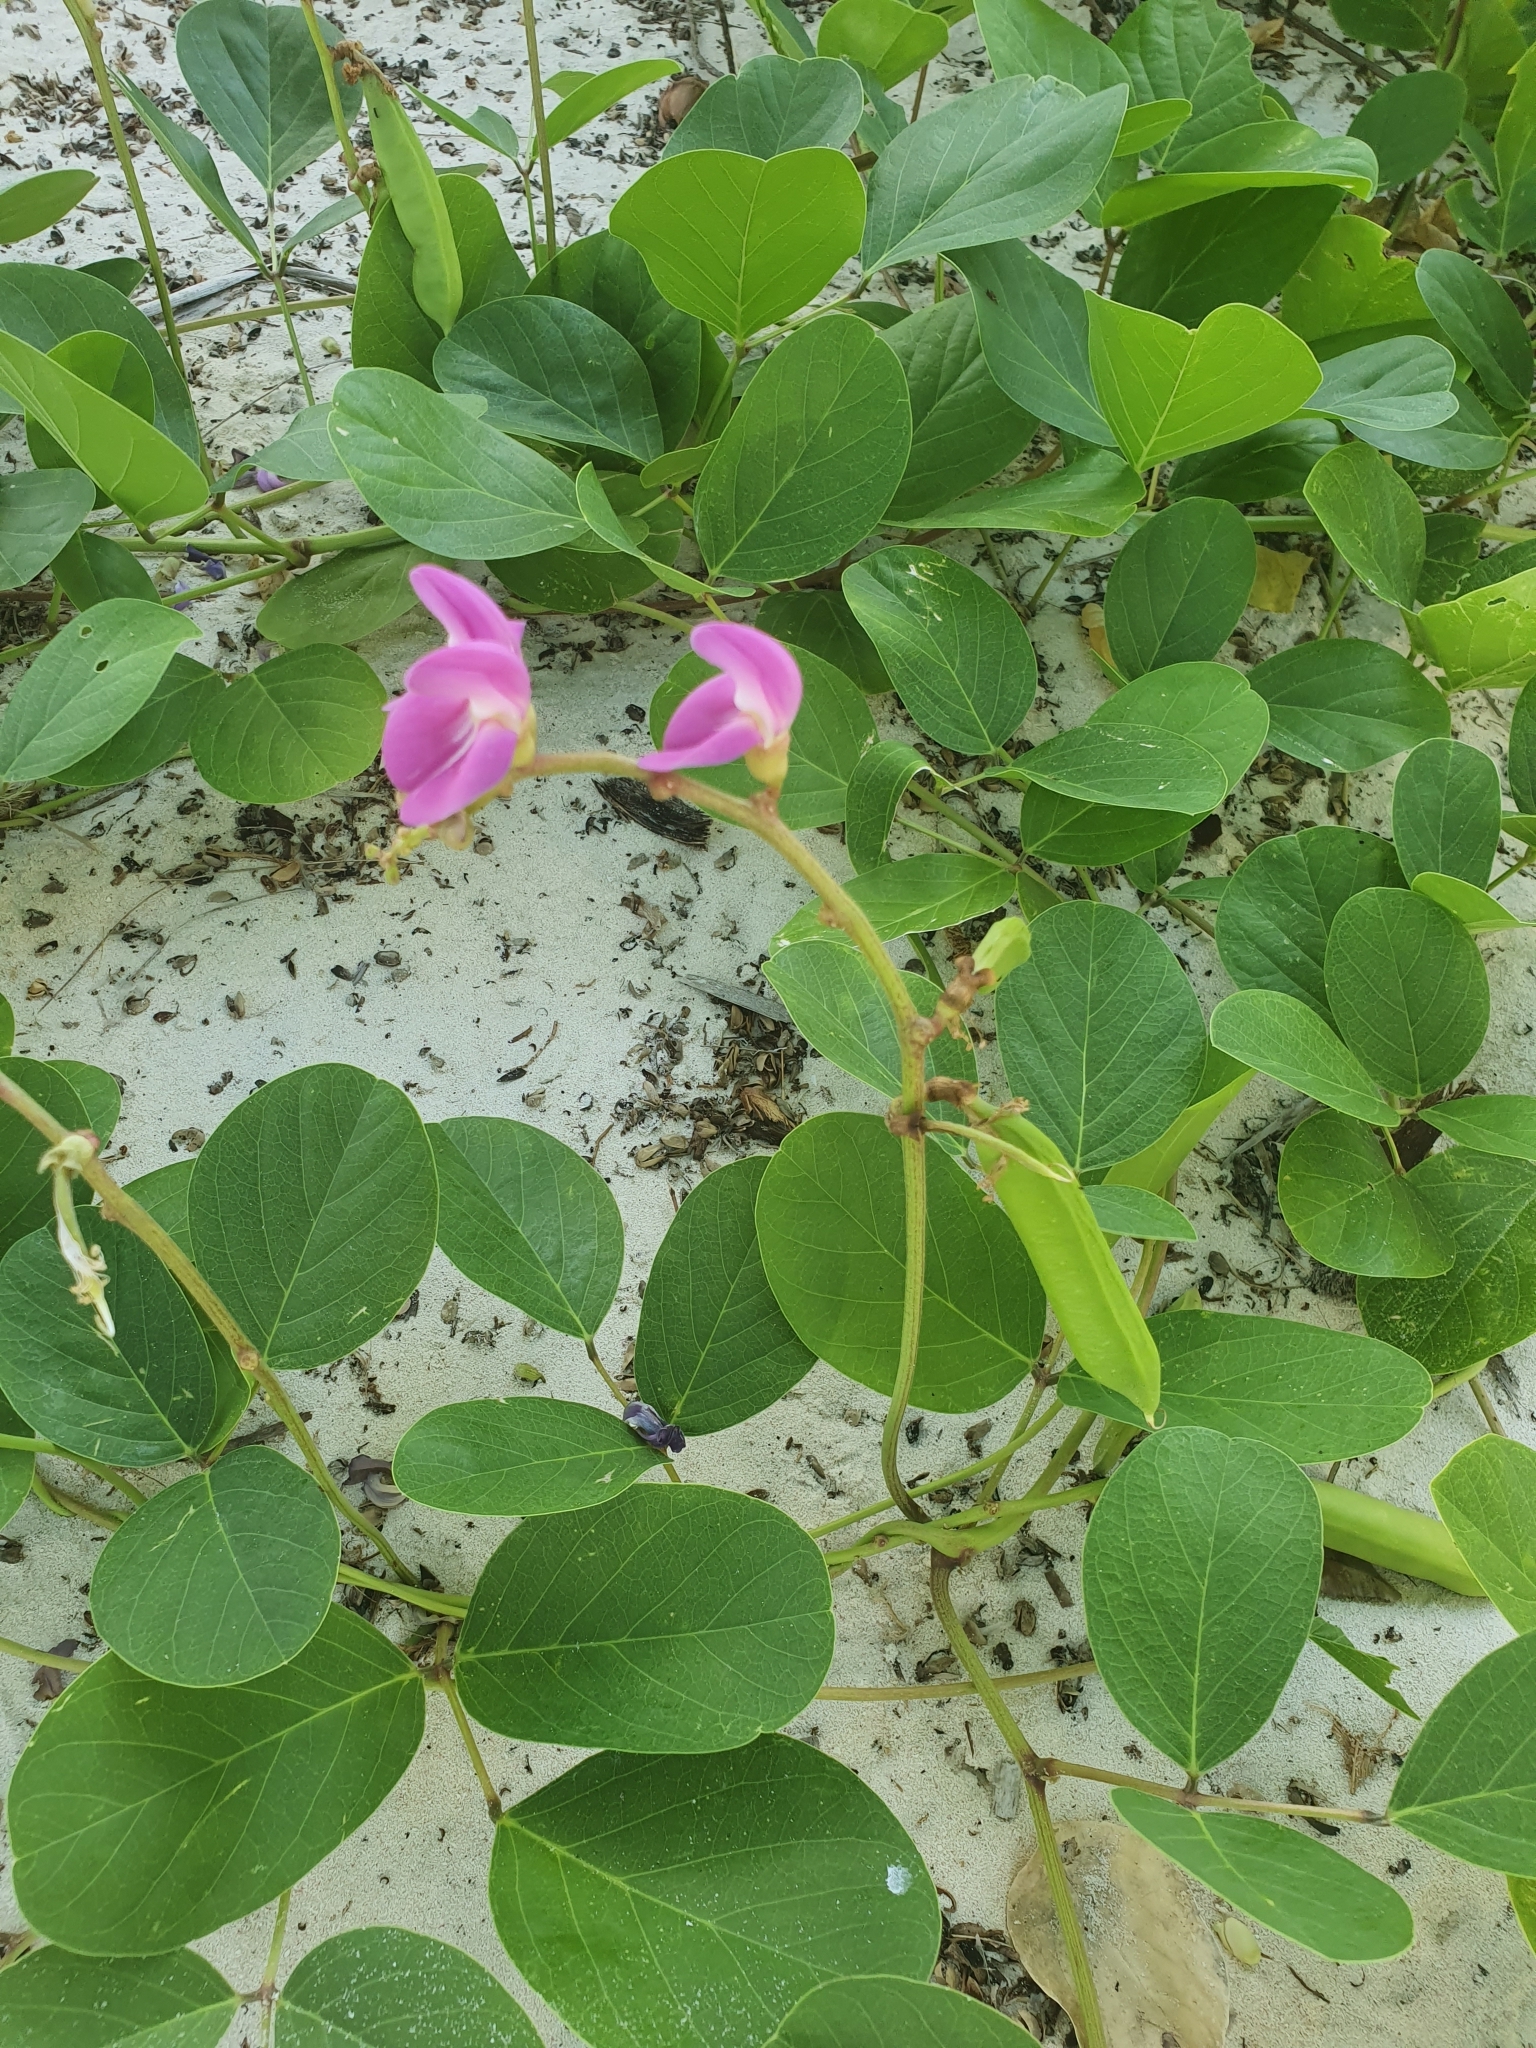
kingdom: Plantae
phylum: Tracheophyta
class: Magnoliopsida
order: Fabales
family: Fabaceae
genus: Canavalia
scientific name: Canavalia rosea
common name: Beach-bean
